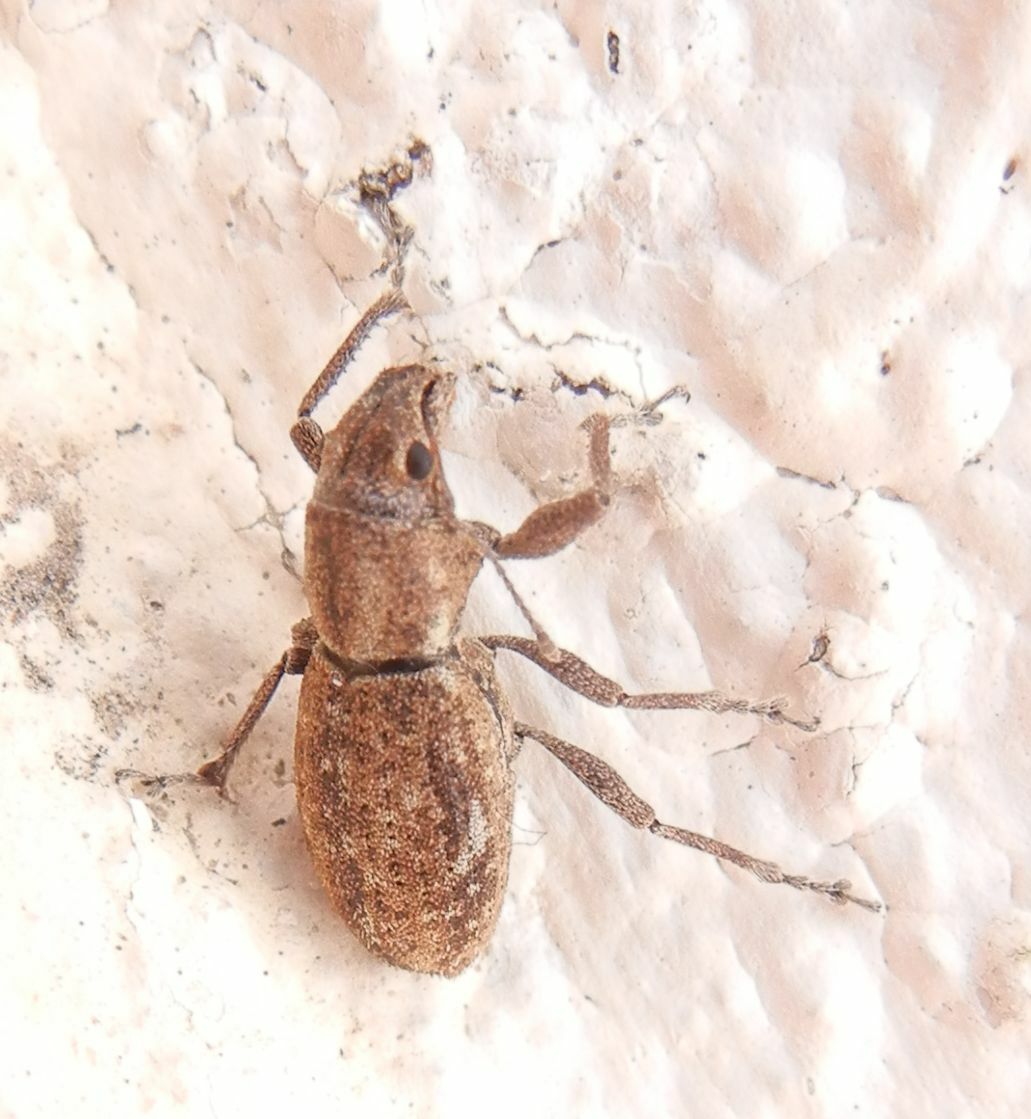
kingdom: Animalia
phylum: Arthropoda
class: Insecta
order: Coleoptera
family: Curculionidae
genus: Naupactus
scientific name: Naupactus cervinus
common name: Fuller rose beetle
